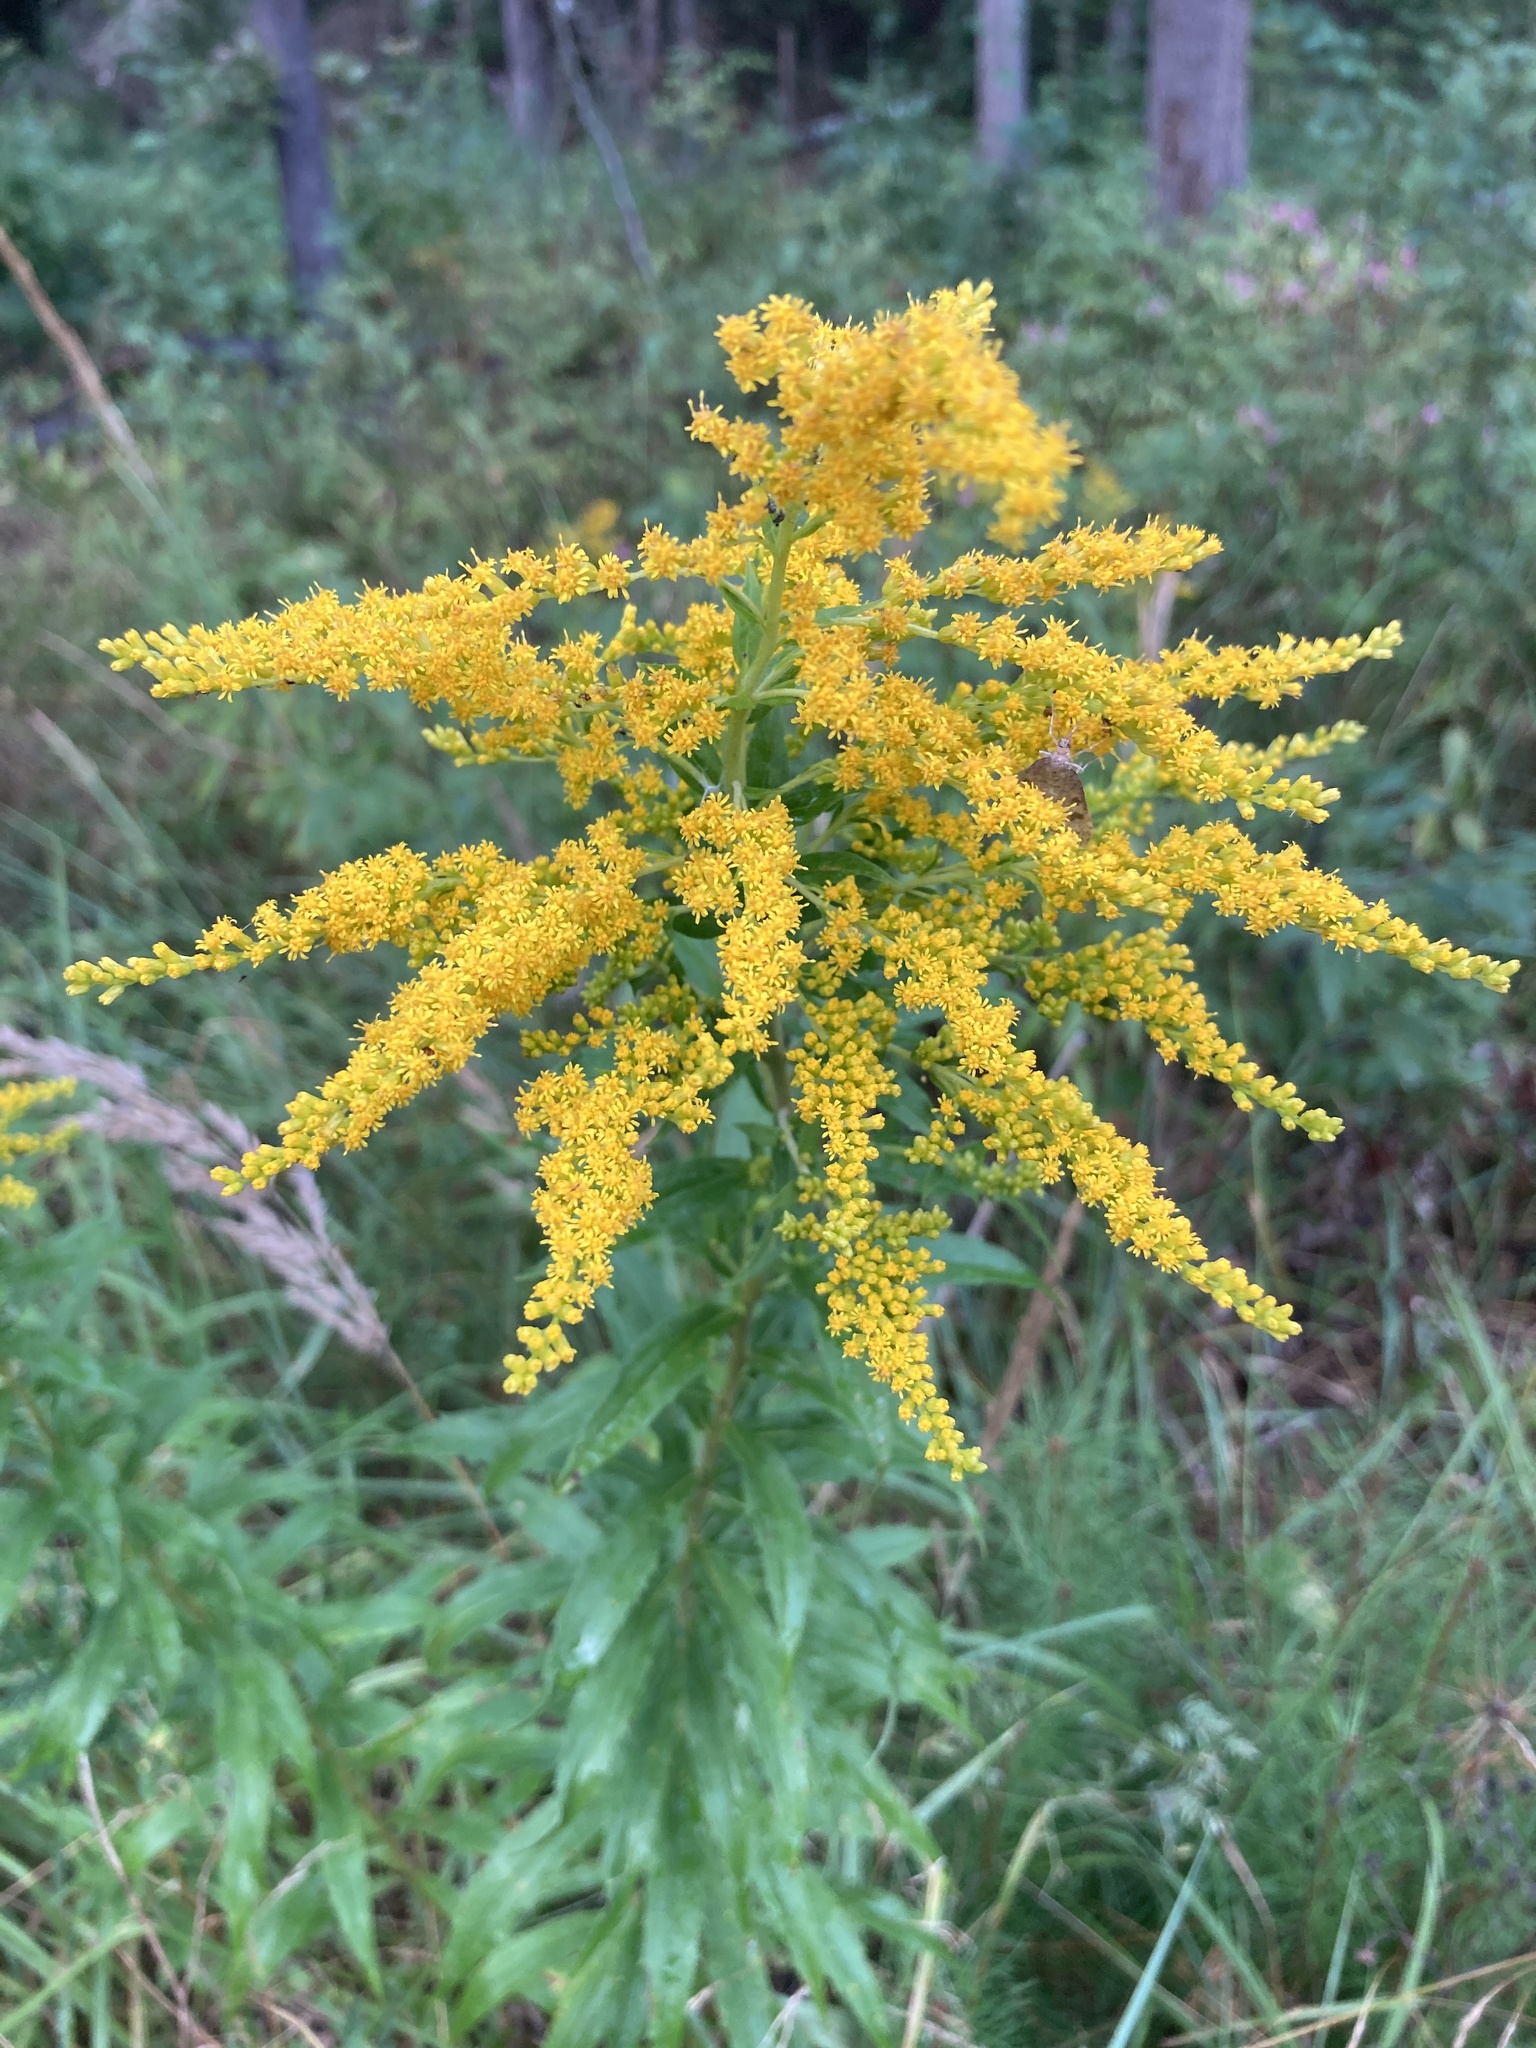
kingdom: Plantae
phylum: Tracheophyta
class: Magnoliopsida
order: Asterales
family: Asteraceae
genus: Solidago
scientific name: Solidago canadensis
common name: Canada goldenrod
